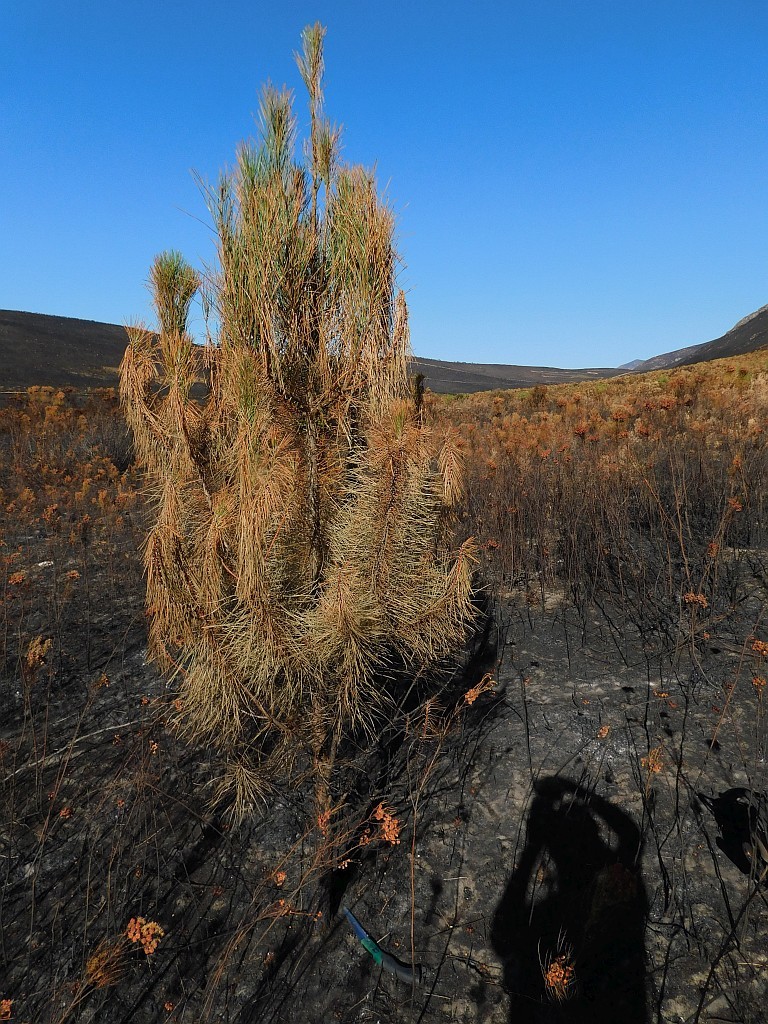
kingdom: Plantae
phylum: Tracheophyta
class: Pinopsida
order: Pinales
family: Pinaceae
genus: Pinus
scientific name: Pinus pinaster
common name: Maritime pine
